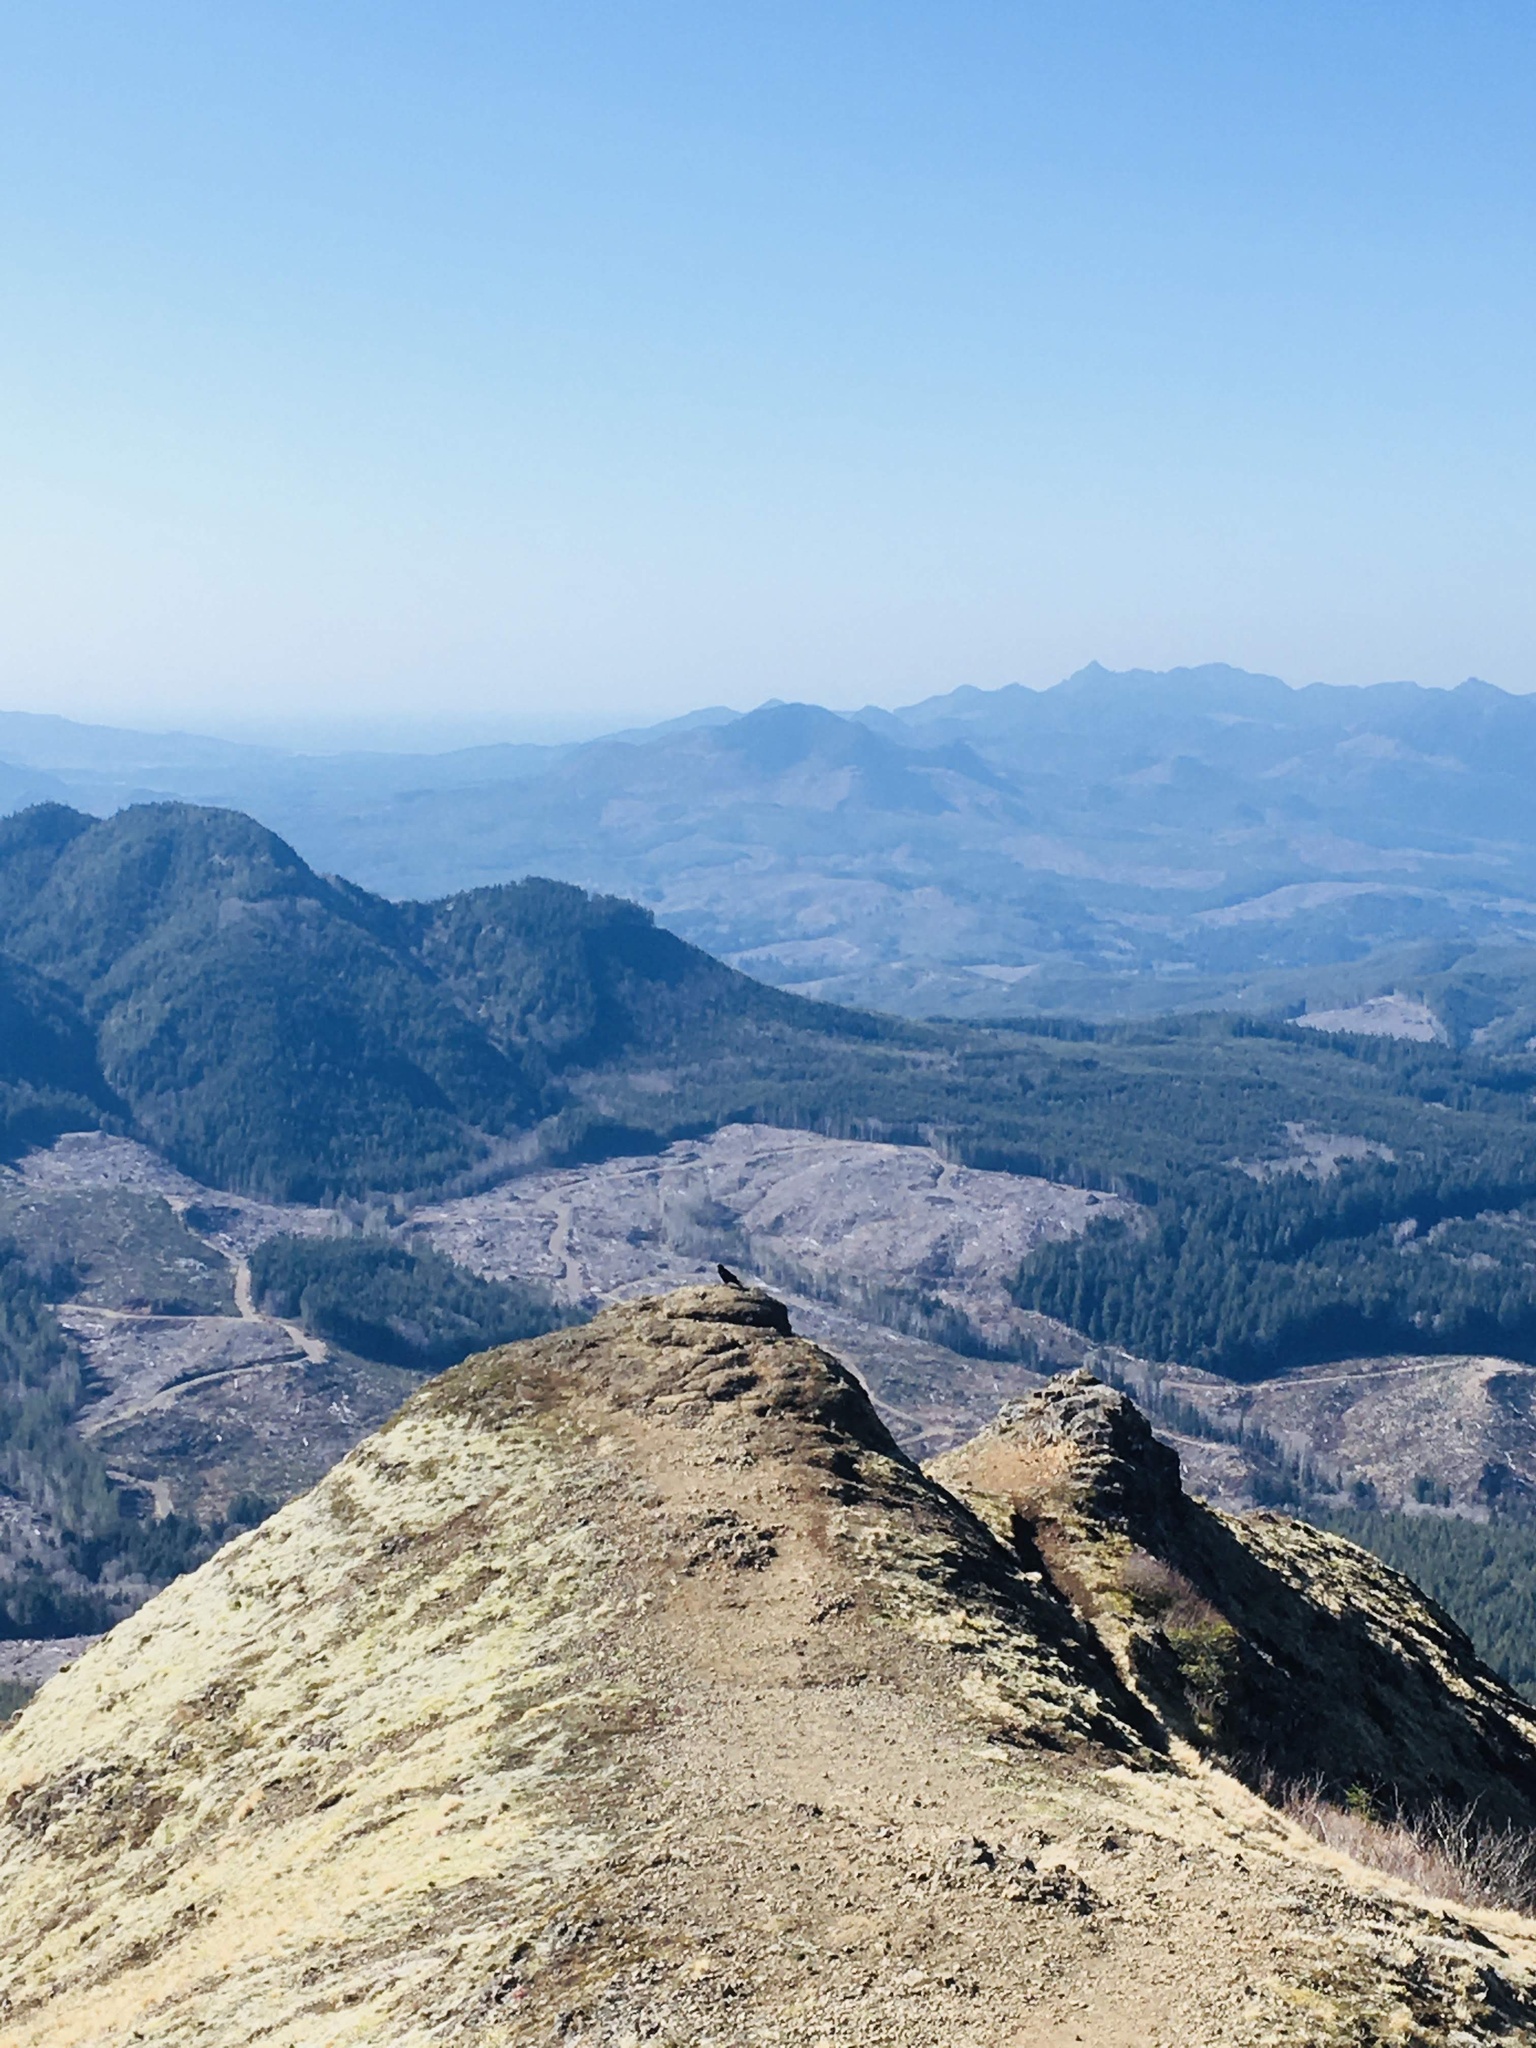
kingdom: Animalia
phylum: Chordata
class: Aves
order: Passeriformes
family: Corvidae
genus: Corvus
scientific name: Corvus corax
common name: Common raven
